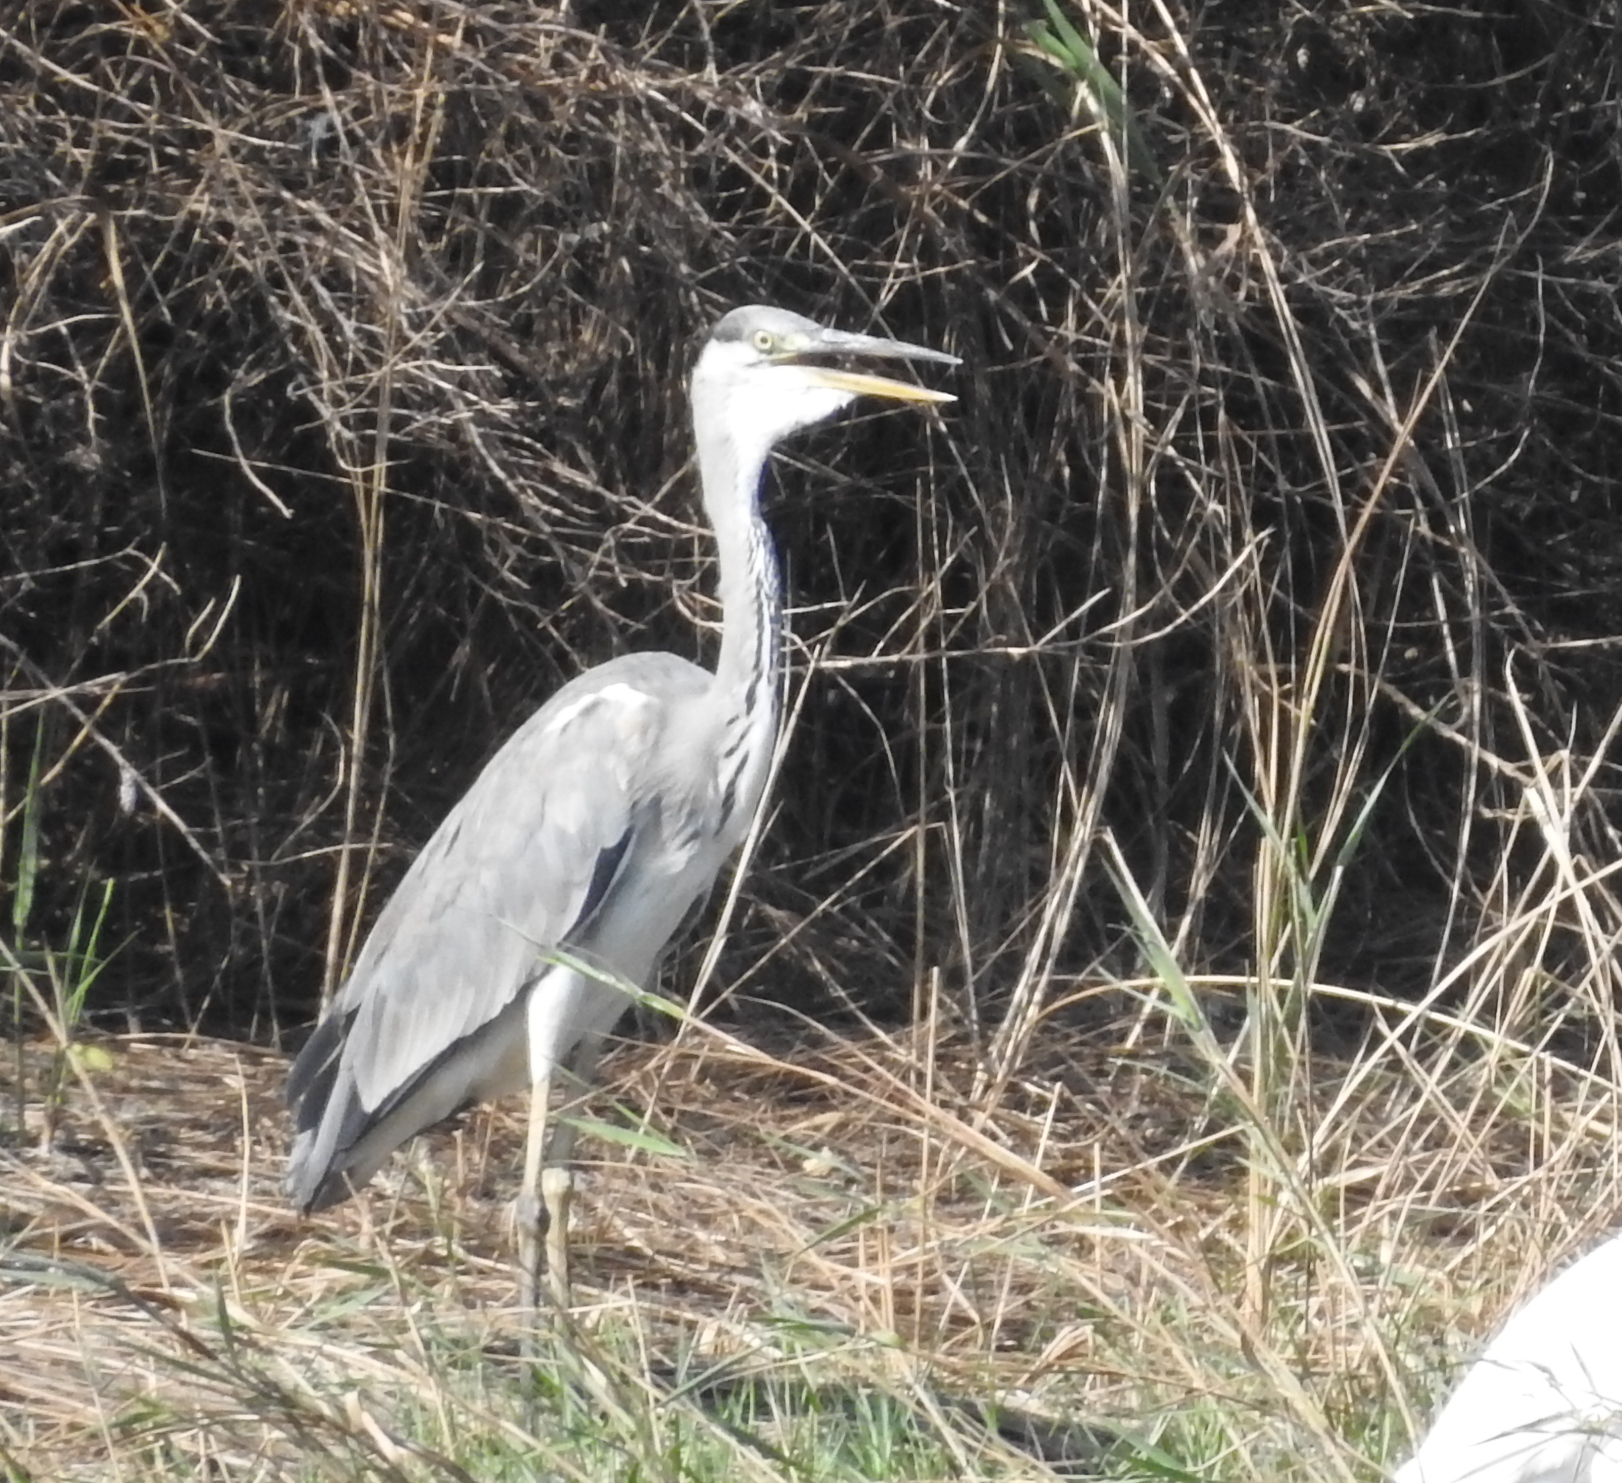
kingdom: Animalia
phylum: Chordata
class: Aves
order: Pelecaniformes
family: Ardeidae
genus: Ardea
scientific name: Ardea cinerea
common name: Grey heron
